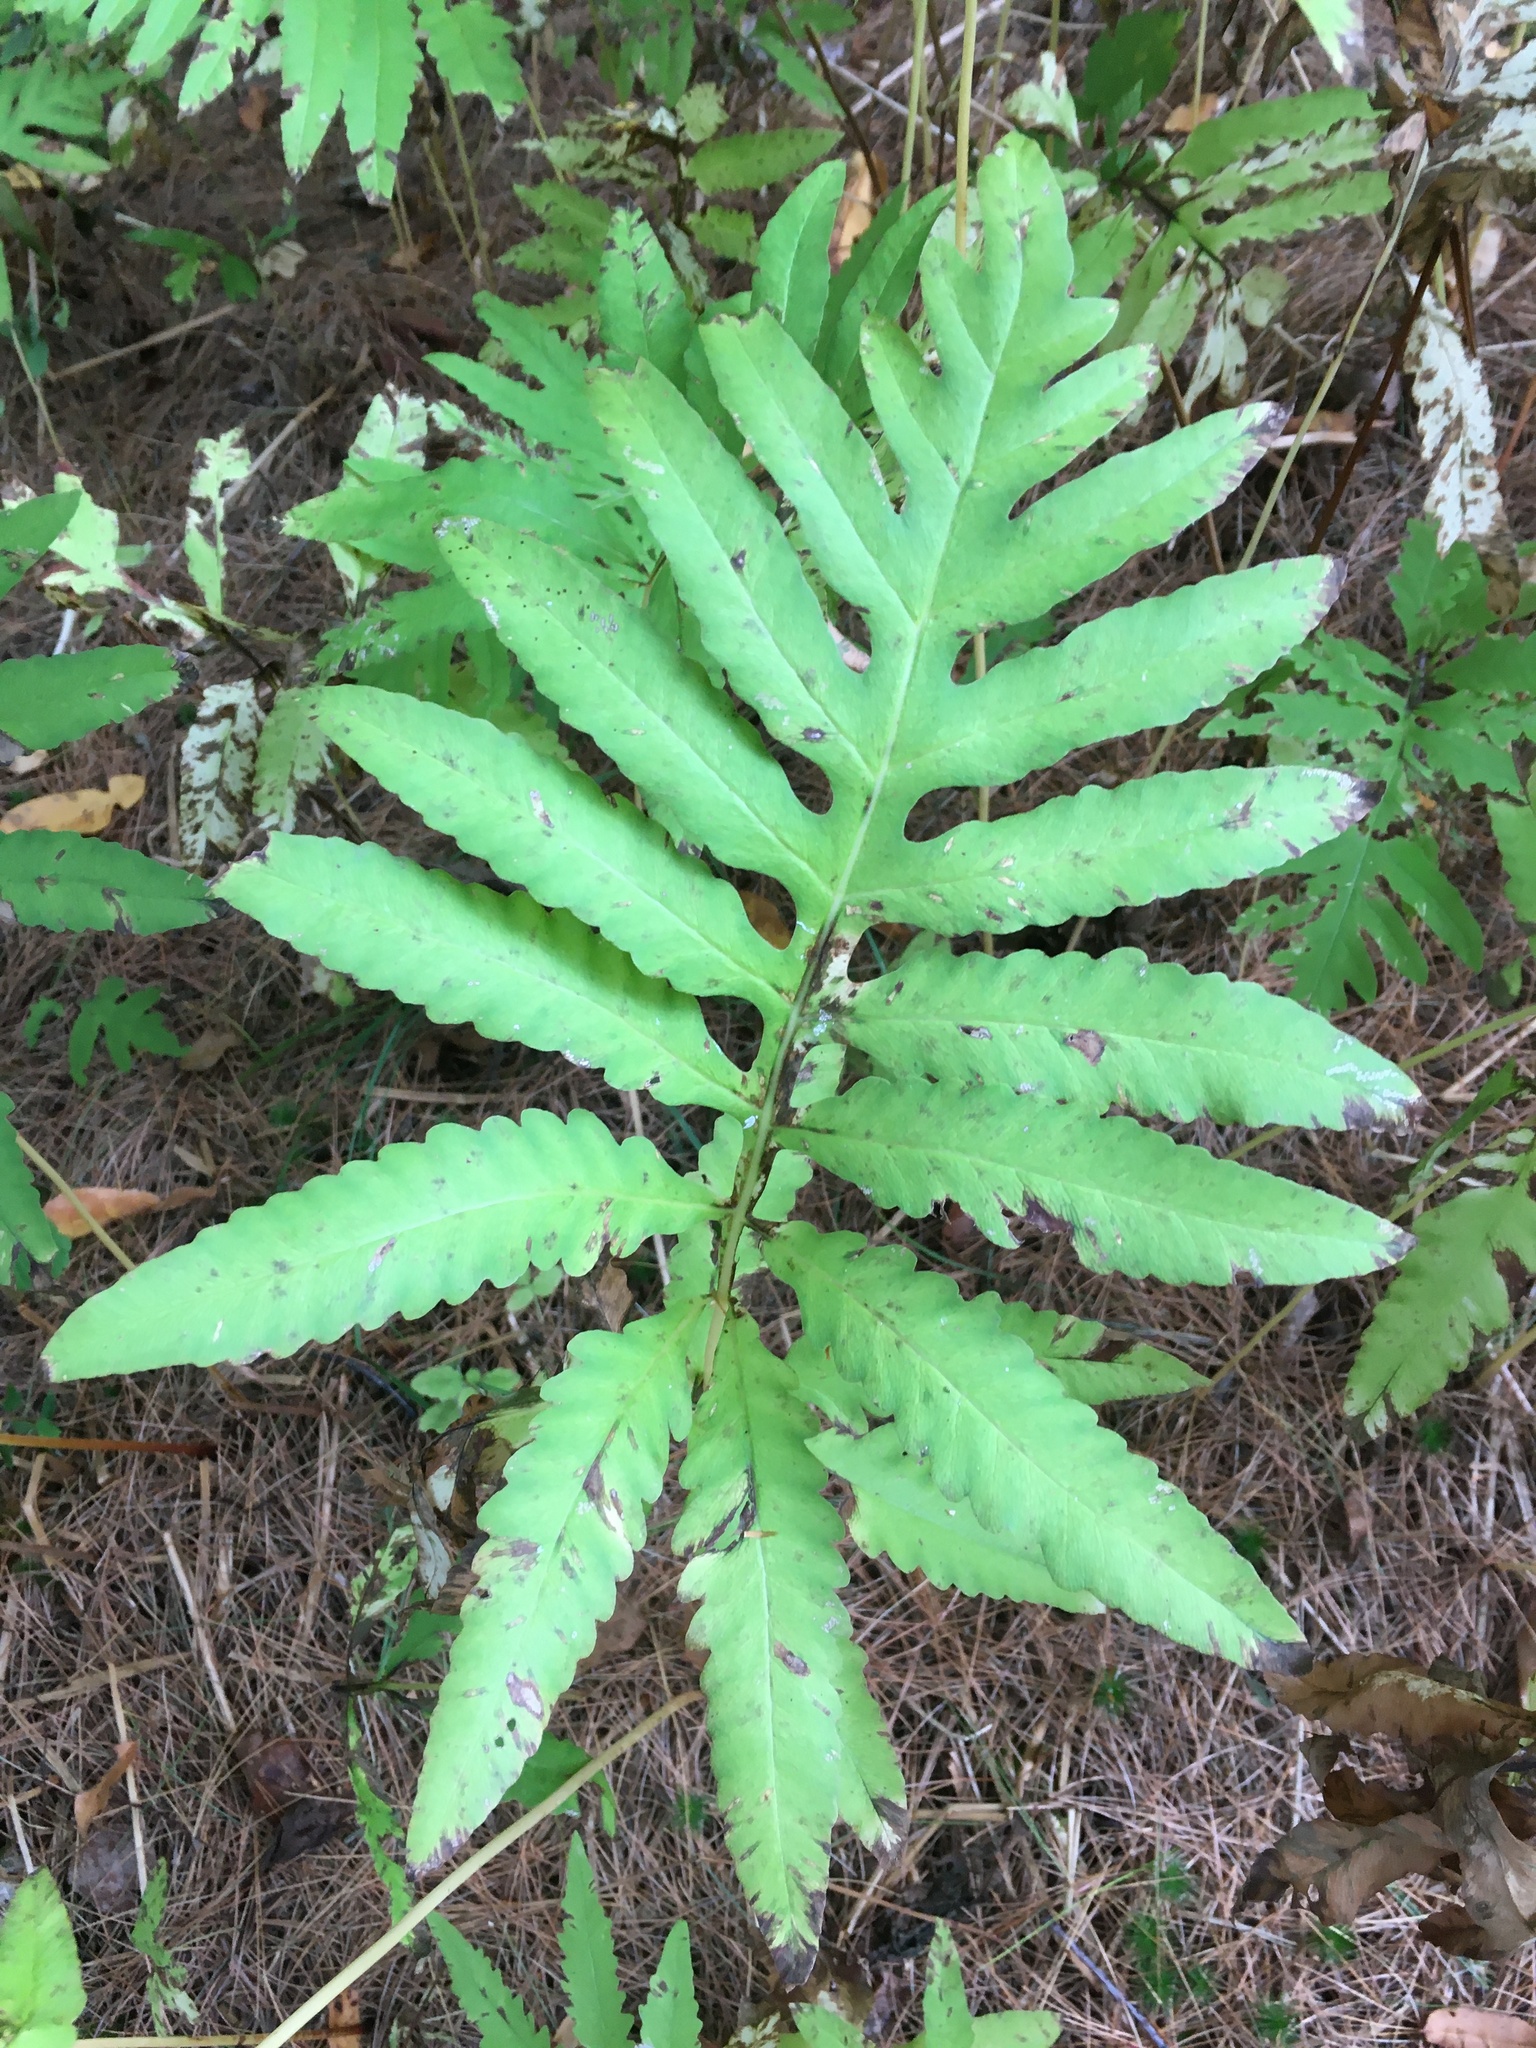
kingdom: Plantae
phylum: Tracheophyta
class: Polypodiopsida
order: Polypodiales
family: Onocleaceae
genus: Onoclea
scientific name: Onoclea sensibilis
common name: Sensitive fern
